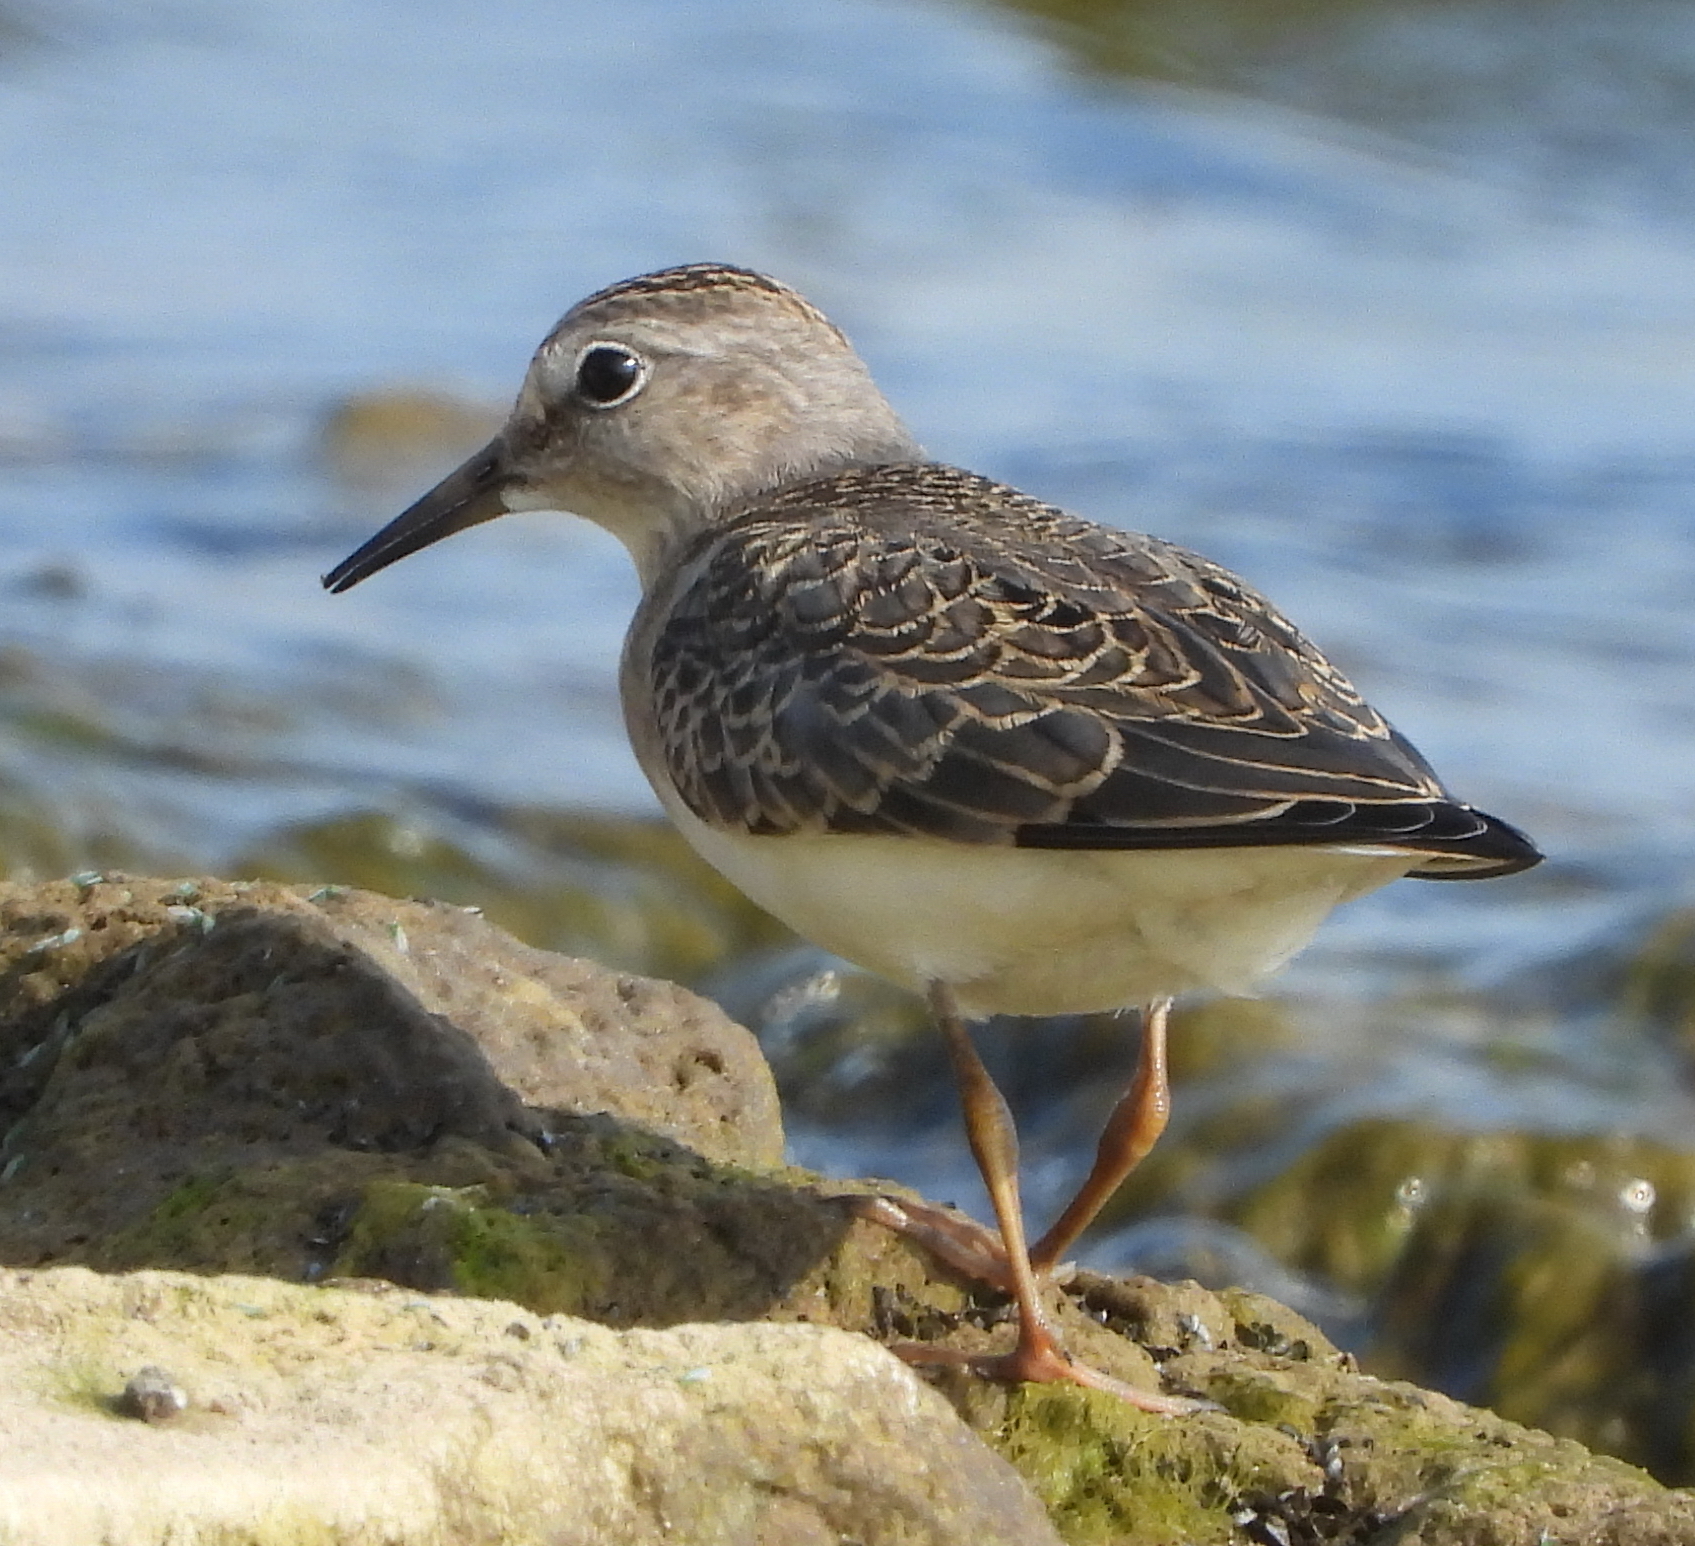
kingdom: Animalia
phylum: Chordata
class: Aves
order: Charadriiformes
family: Scolopacidae
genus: Calidris
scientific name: Calidris temminckii
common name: Temminck's stint
